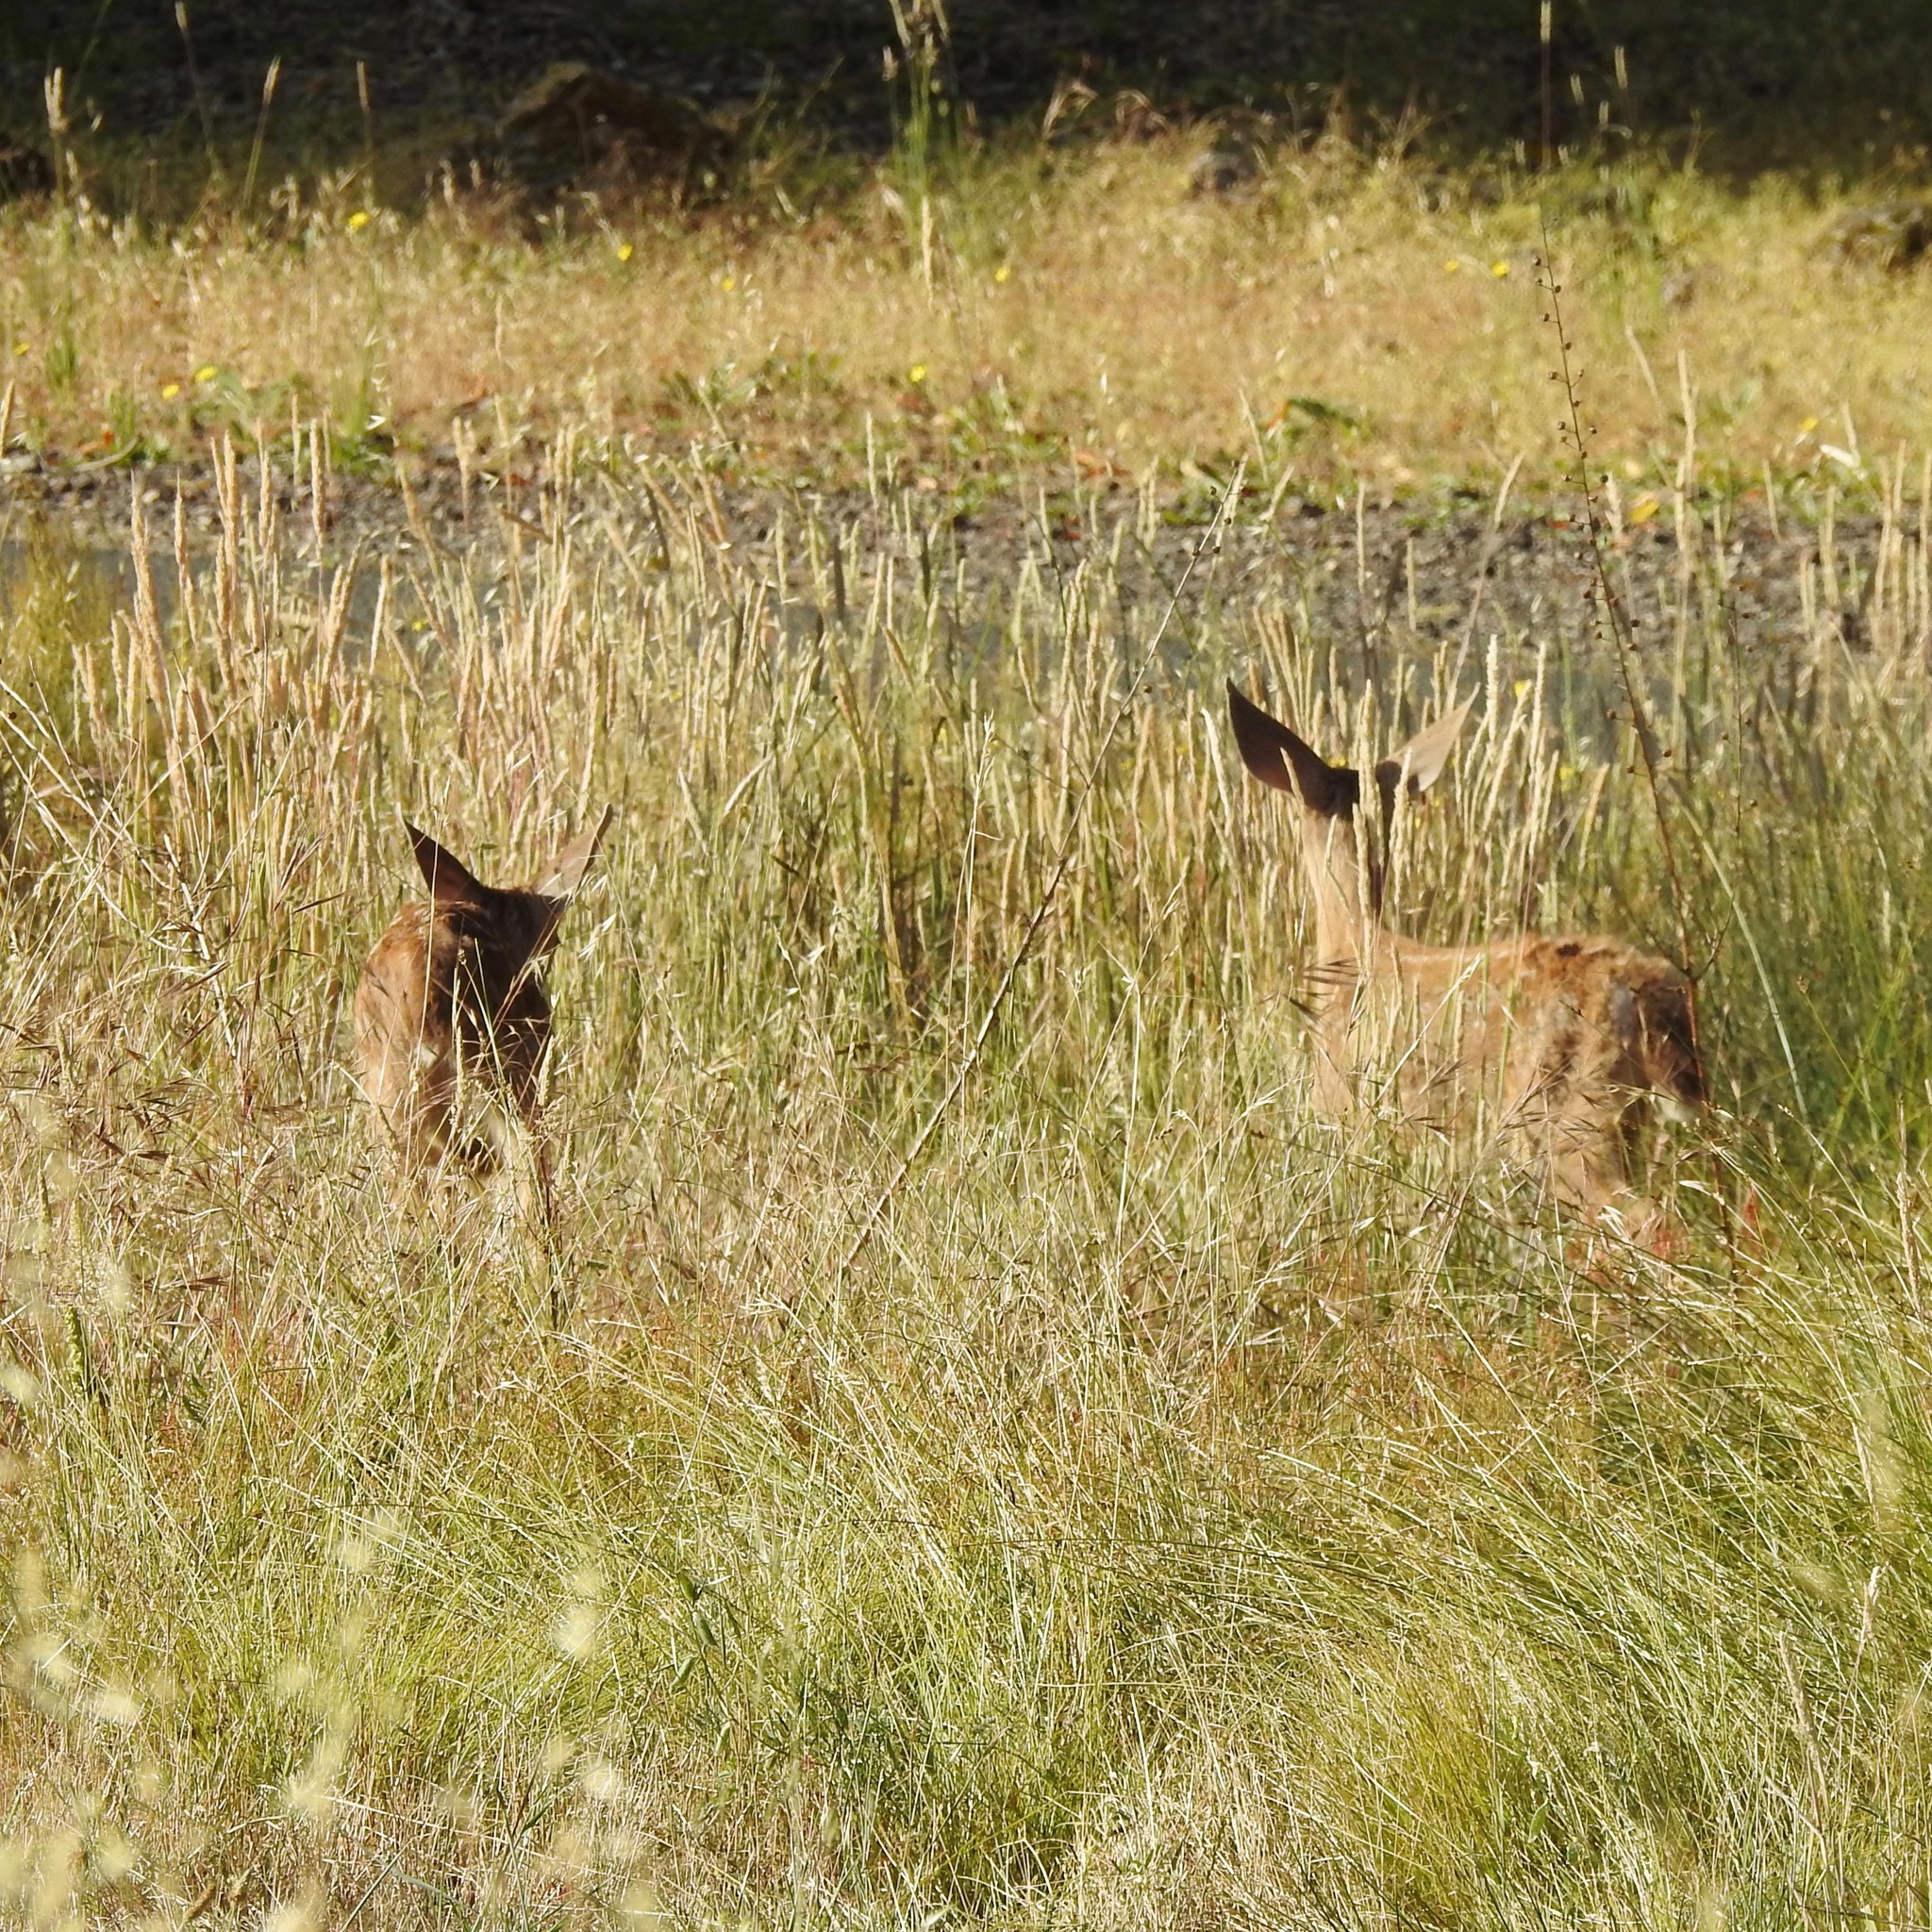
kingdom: Animalia
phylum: Chordata
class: Mammalia
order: Artiodactyla
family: Cervidae
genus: Odocoileus
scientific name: Odocoileus hemionus
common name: Mule deer
